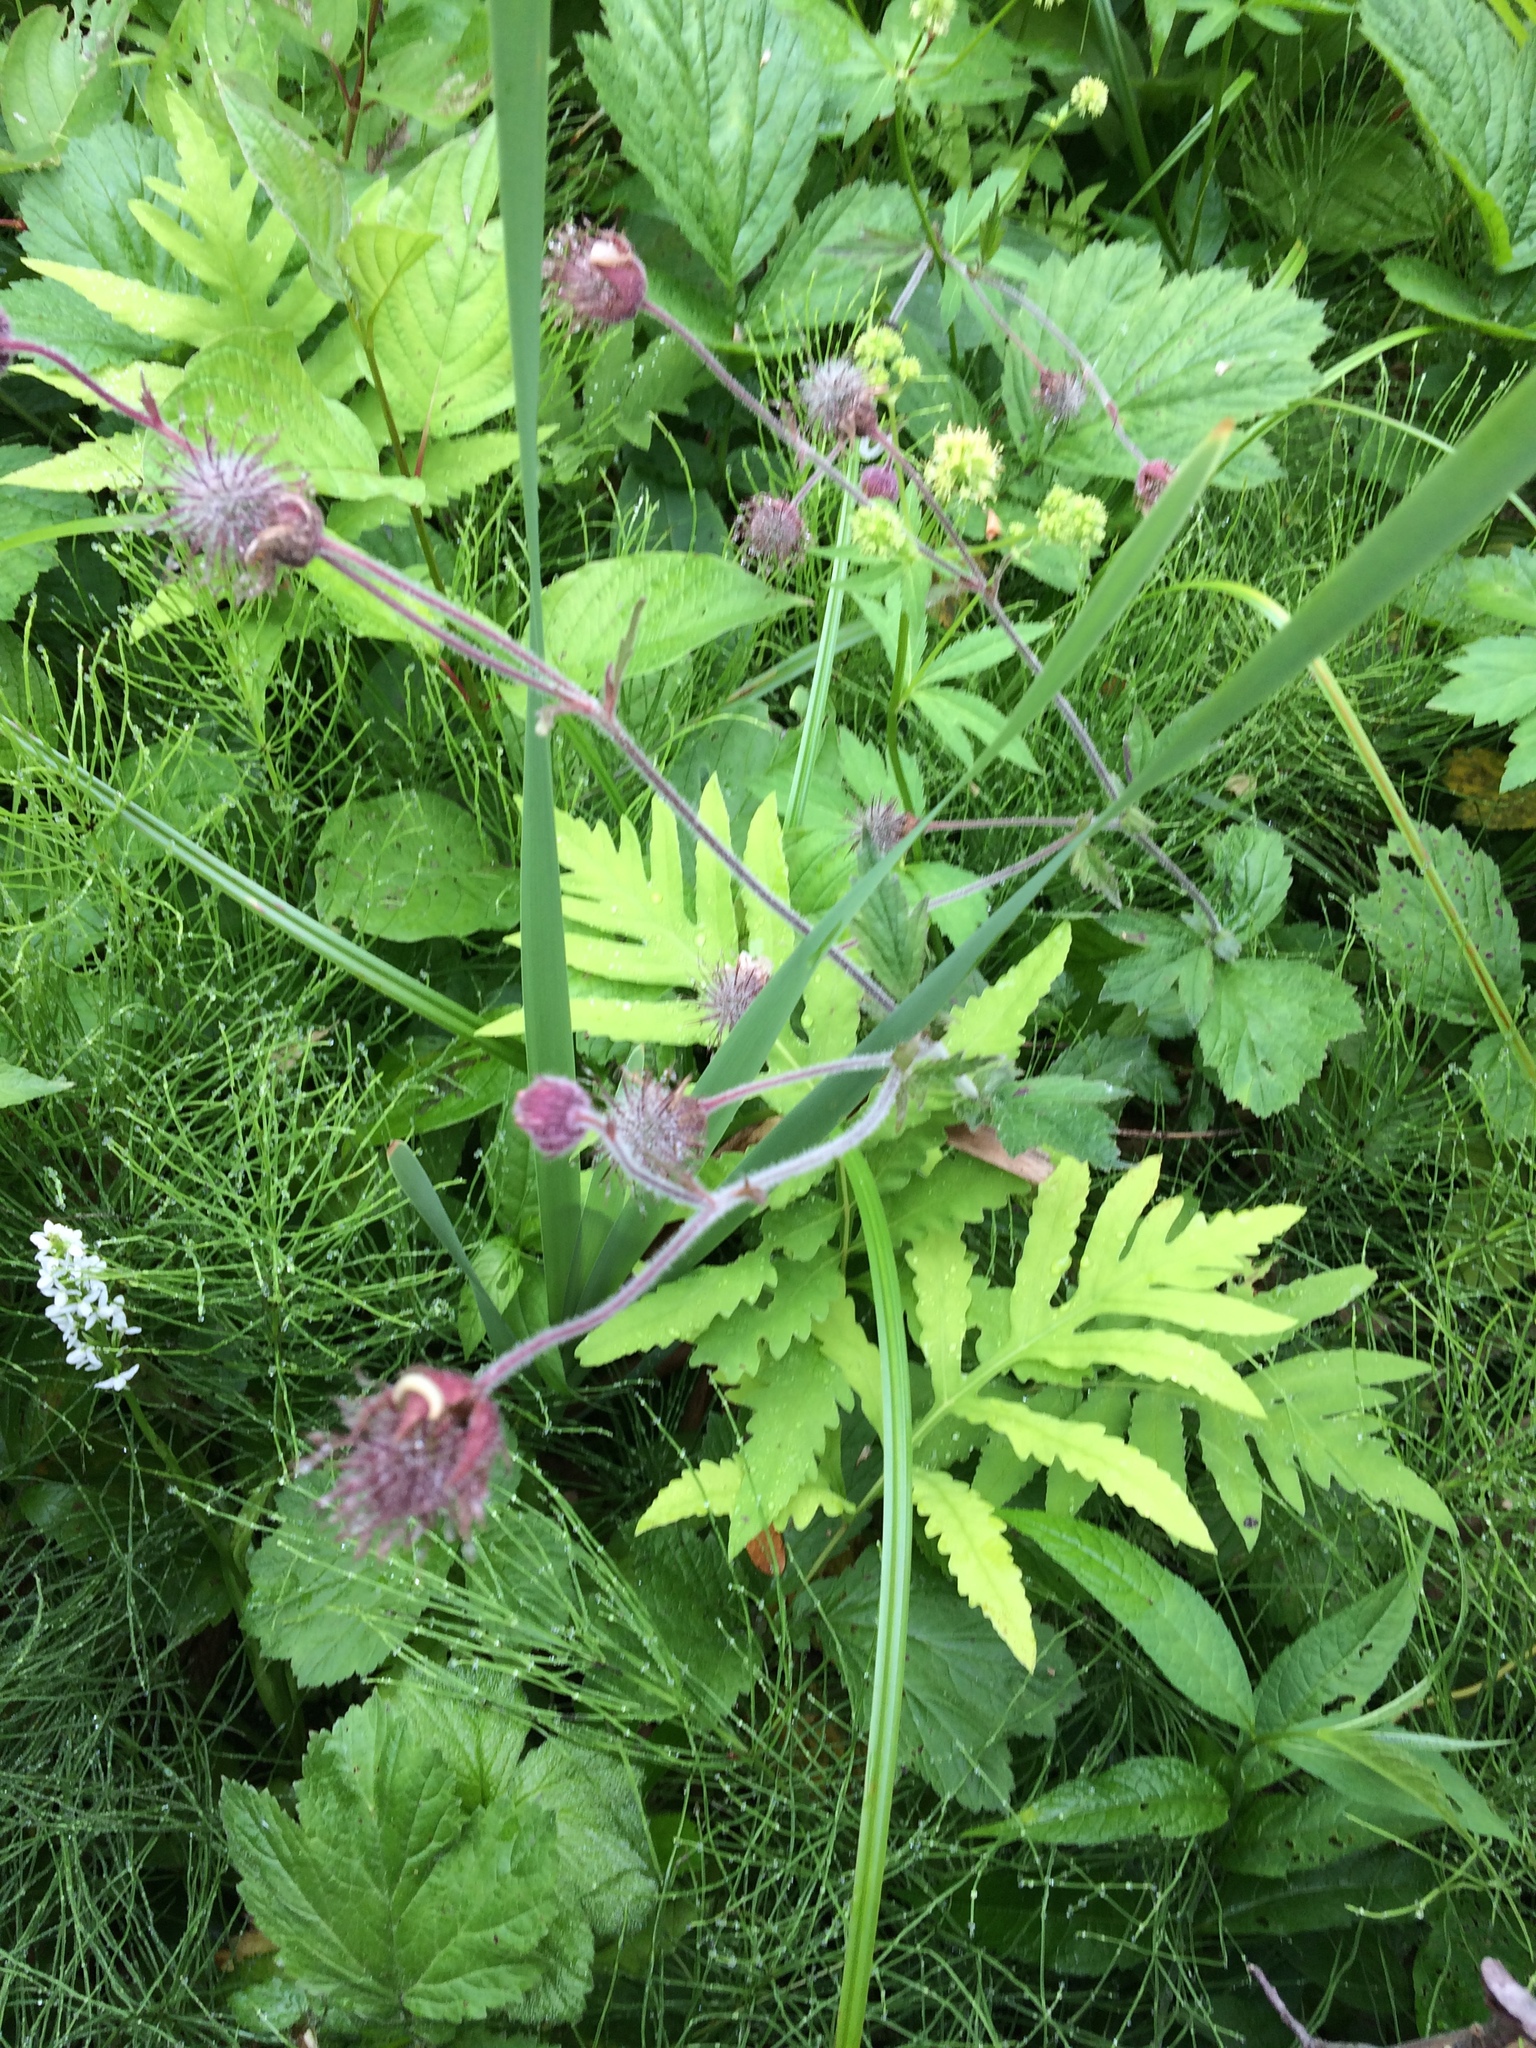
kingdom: Plantae
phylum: Tracheophyta
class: Magnoliopsida
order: Rosales
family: Rosaceae
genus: Geum
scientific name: Geum rivale
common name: Water avens
